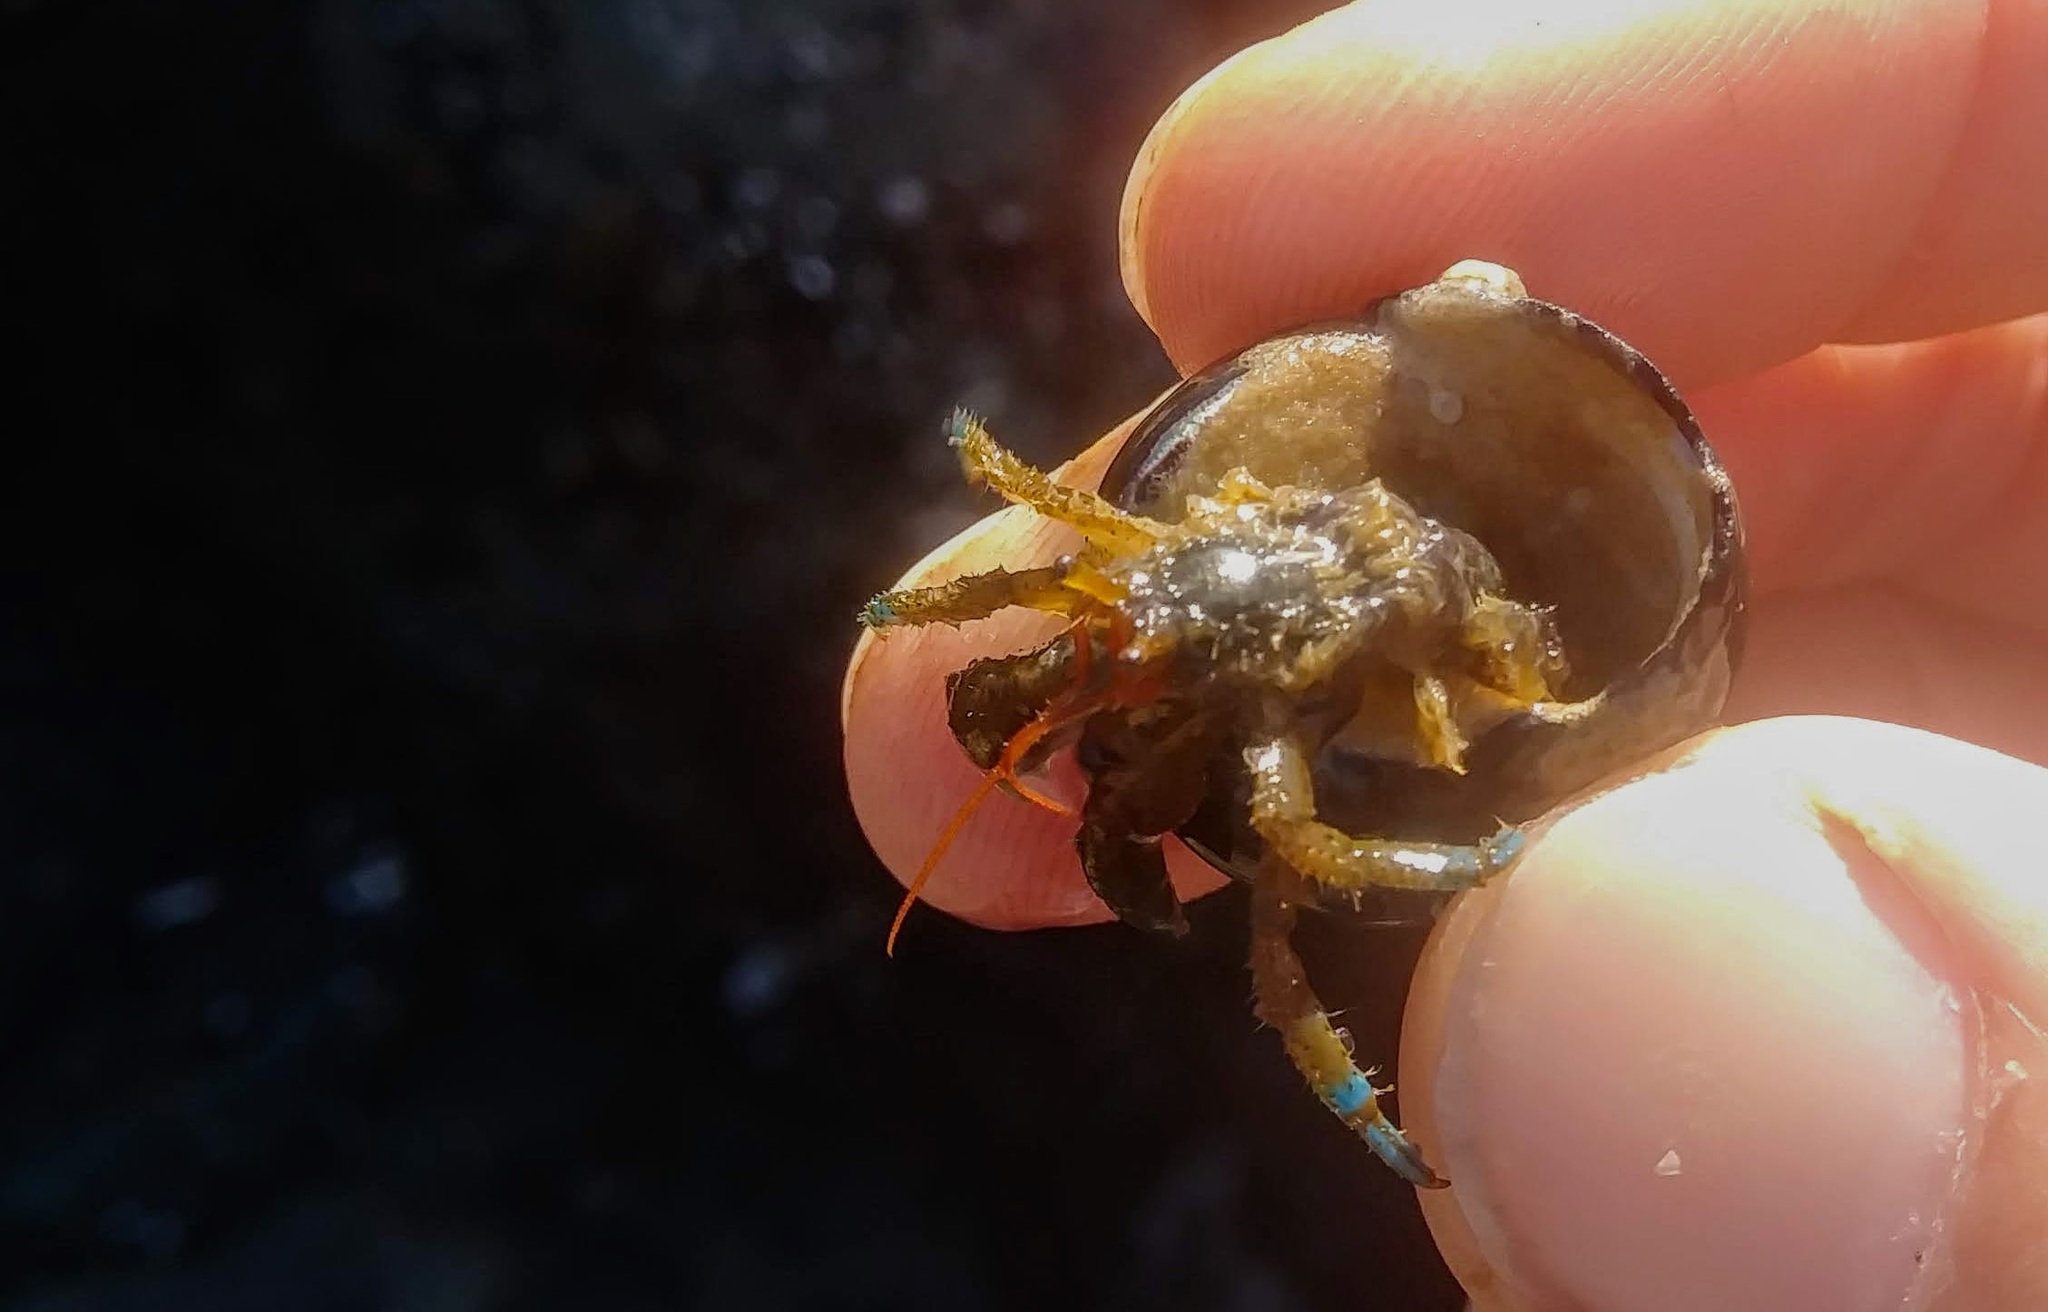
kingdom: Animalia
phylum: Arthropoda
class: Malacostraca
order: Decapoda
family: Paguridae
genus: Pagurus
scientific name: Pagurus samuelis
